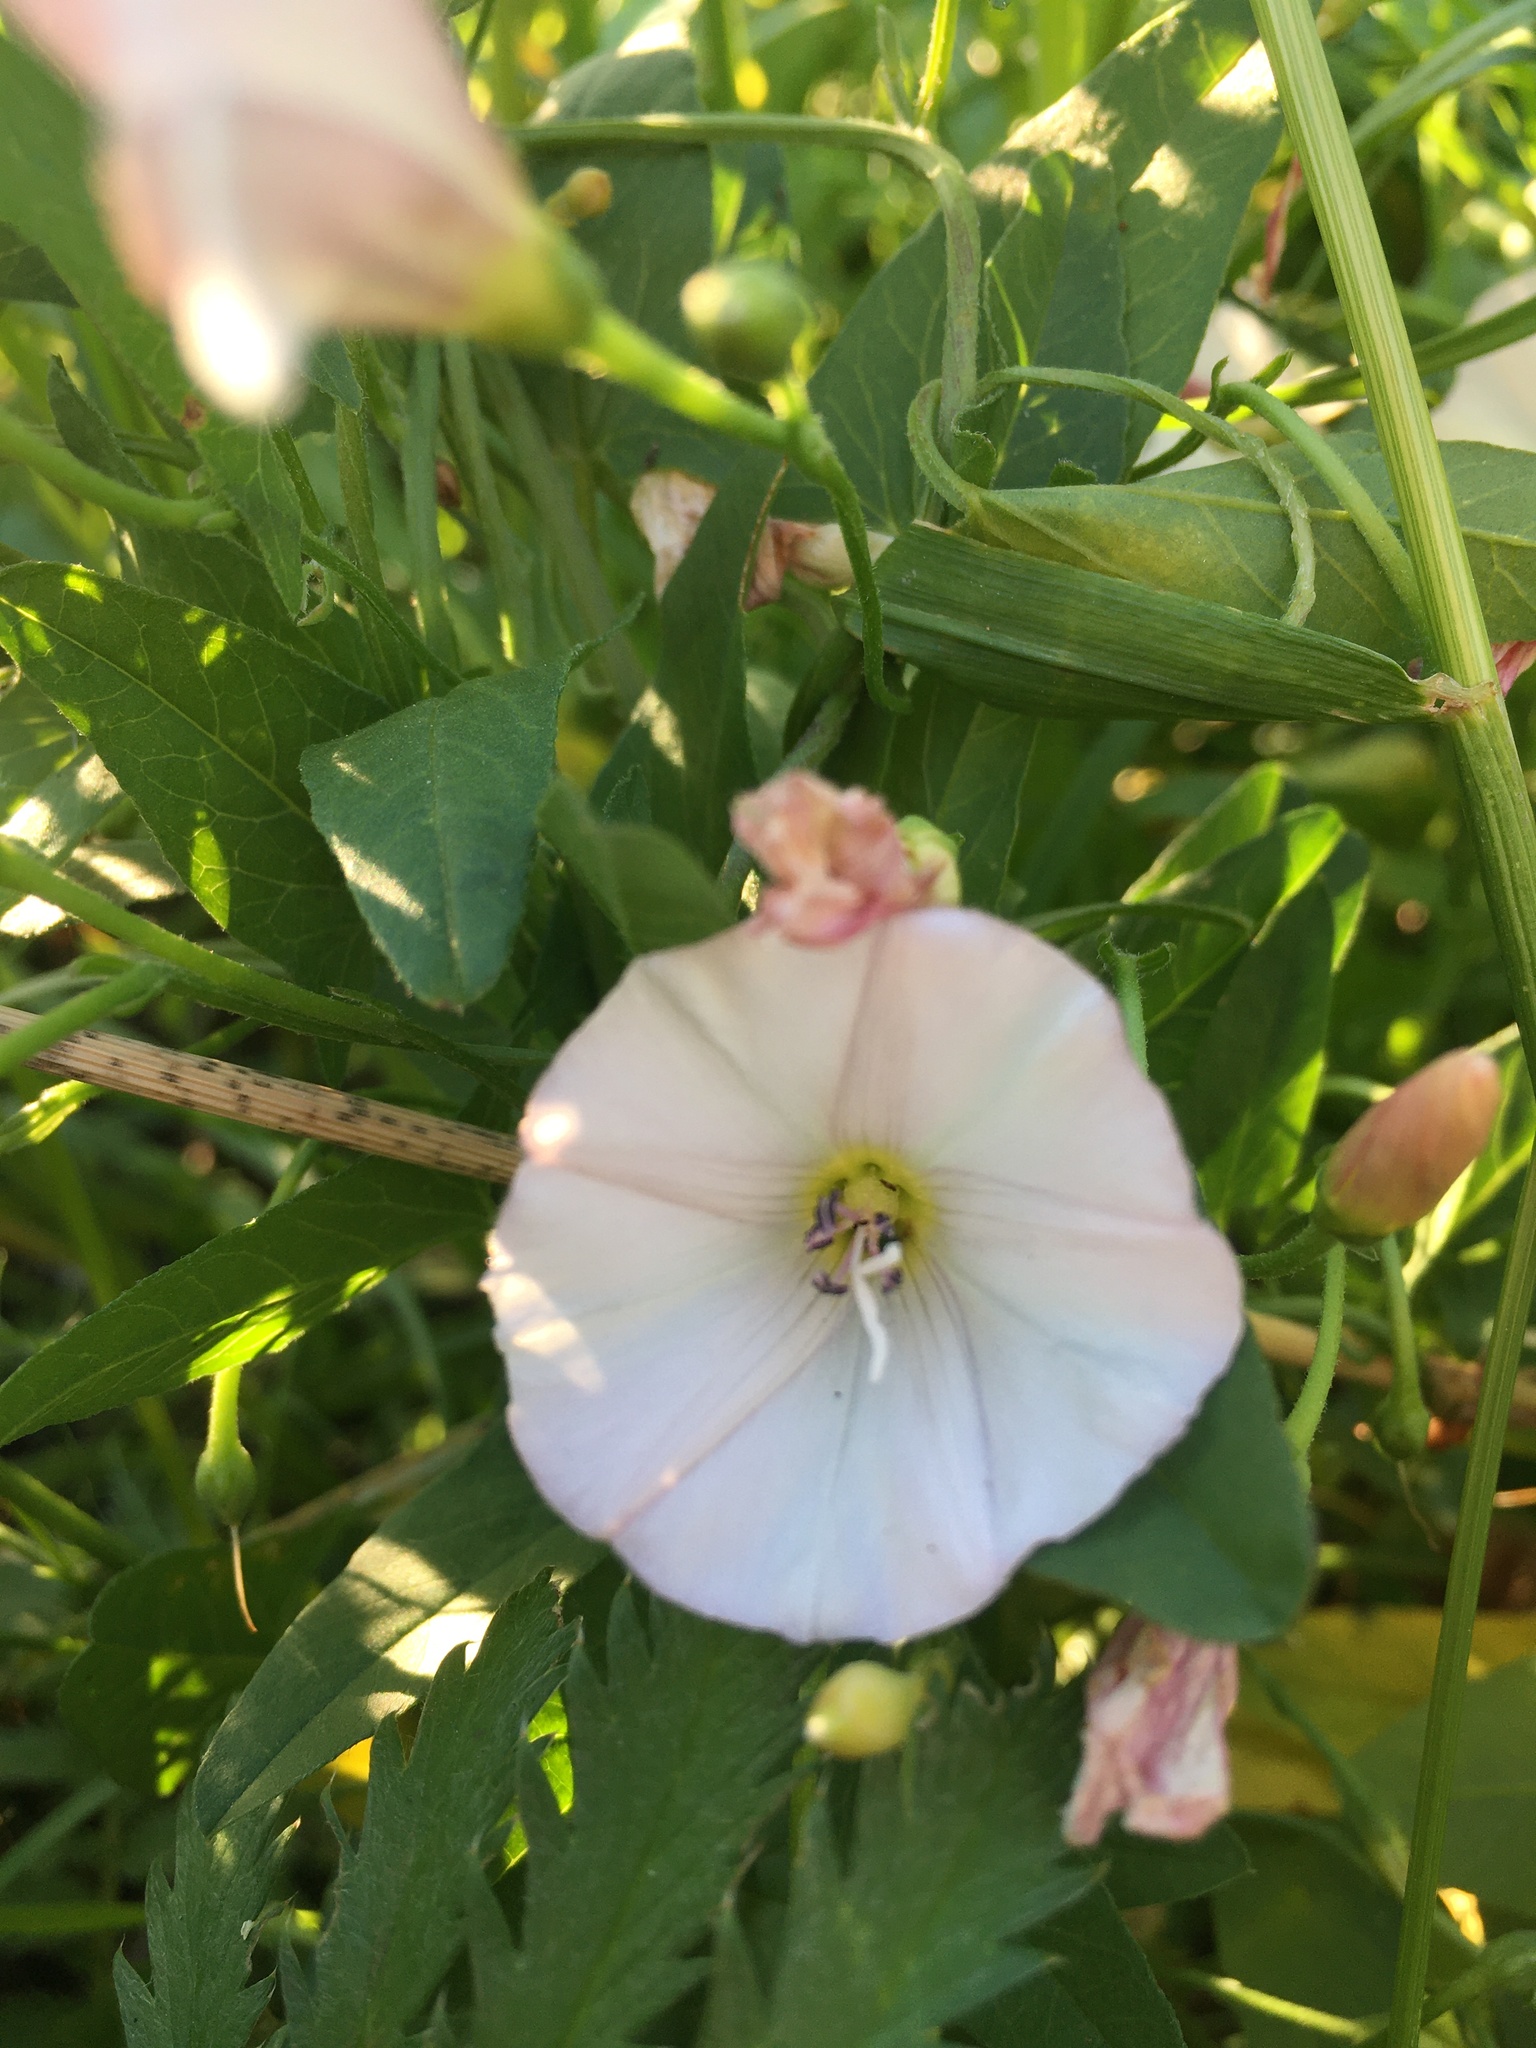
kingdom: Plantae
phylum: Tracheophyta
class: Magnoliopsida
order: Solanales
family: Convolvulaceae
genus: Convolvulus
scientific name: Convolvulus arvensis
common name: Field bindweed
